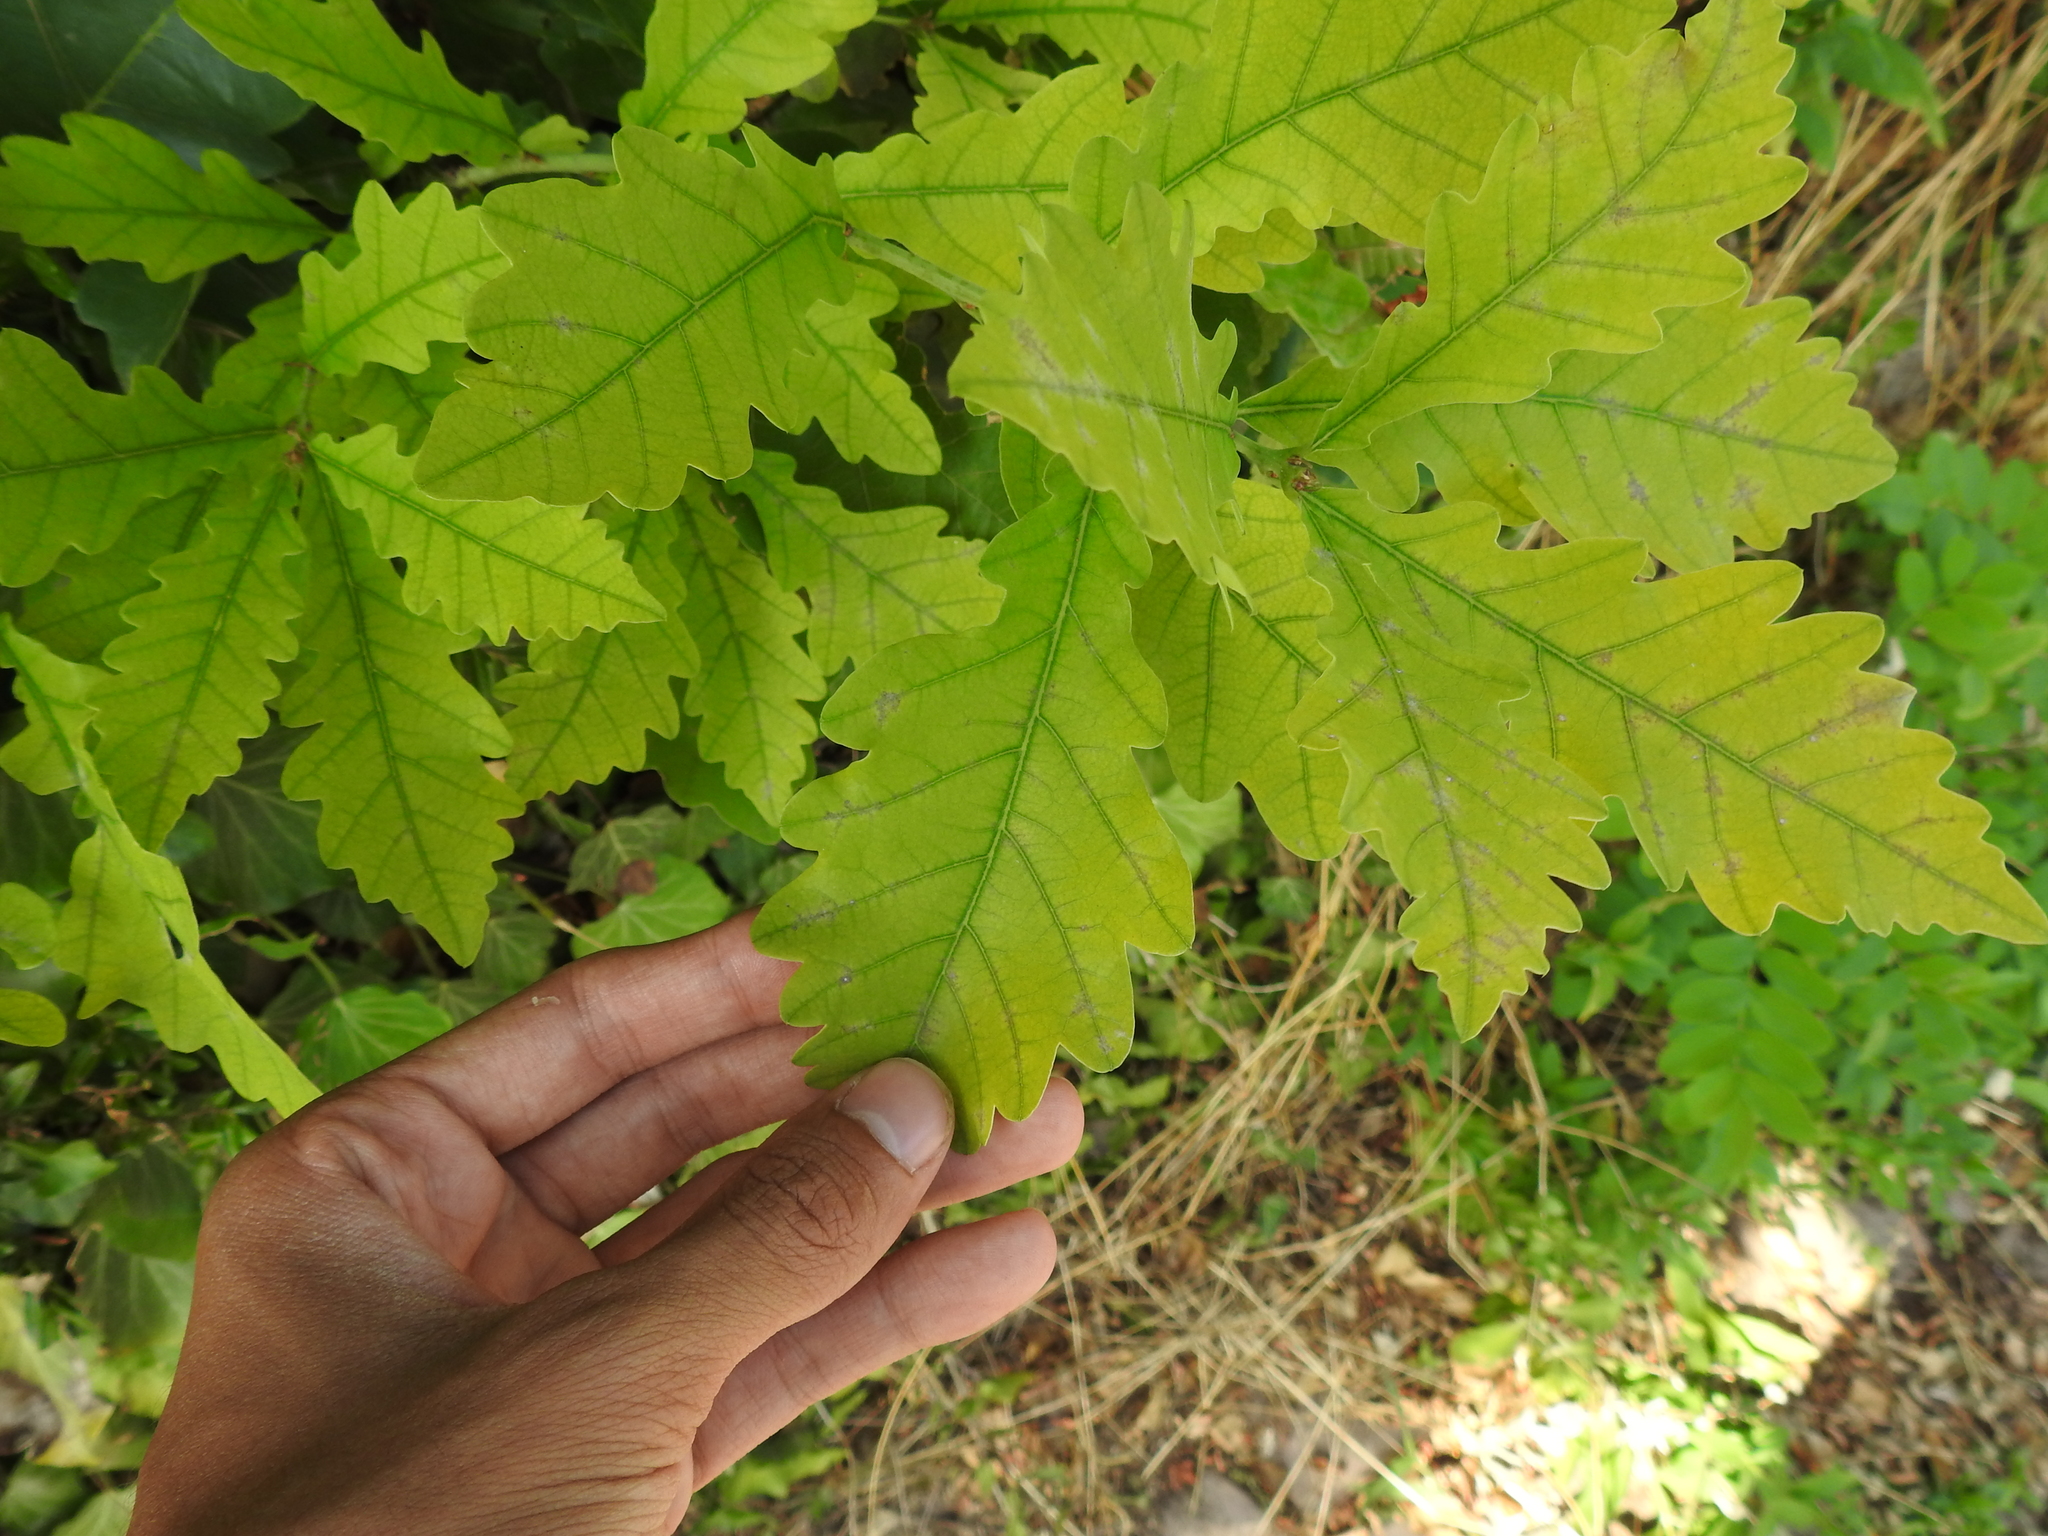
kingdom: Plantae
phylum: Tracheophyta
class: Magnoliopsida
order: Fagales
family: Fagaceae
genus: Quercus
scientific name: Quercus petraea
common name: Sessile oak
